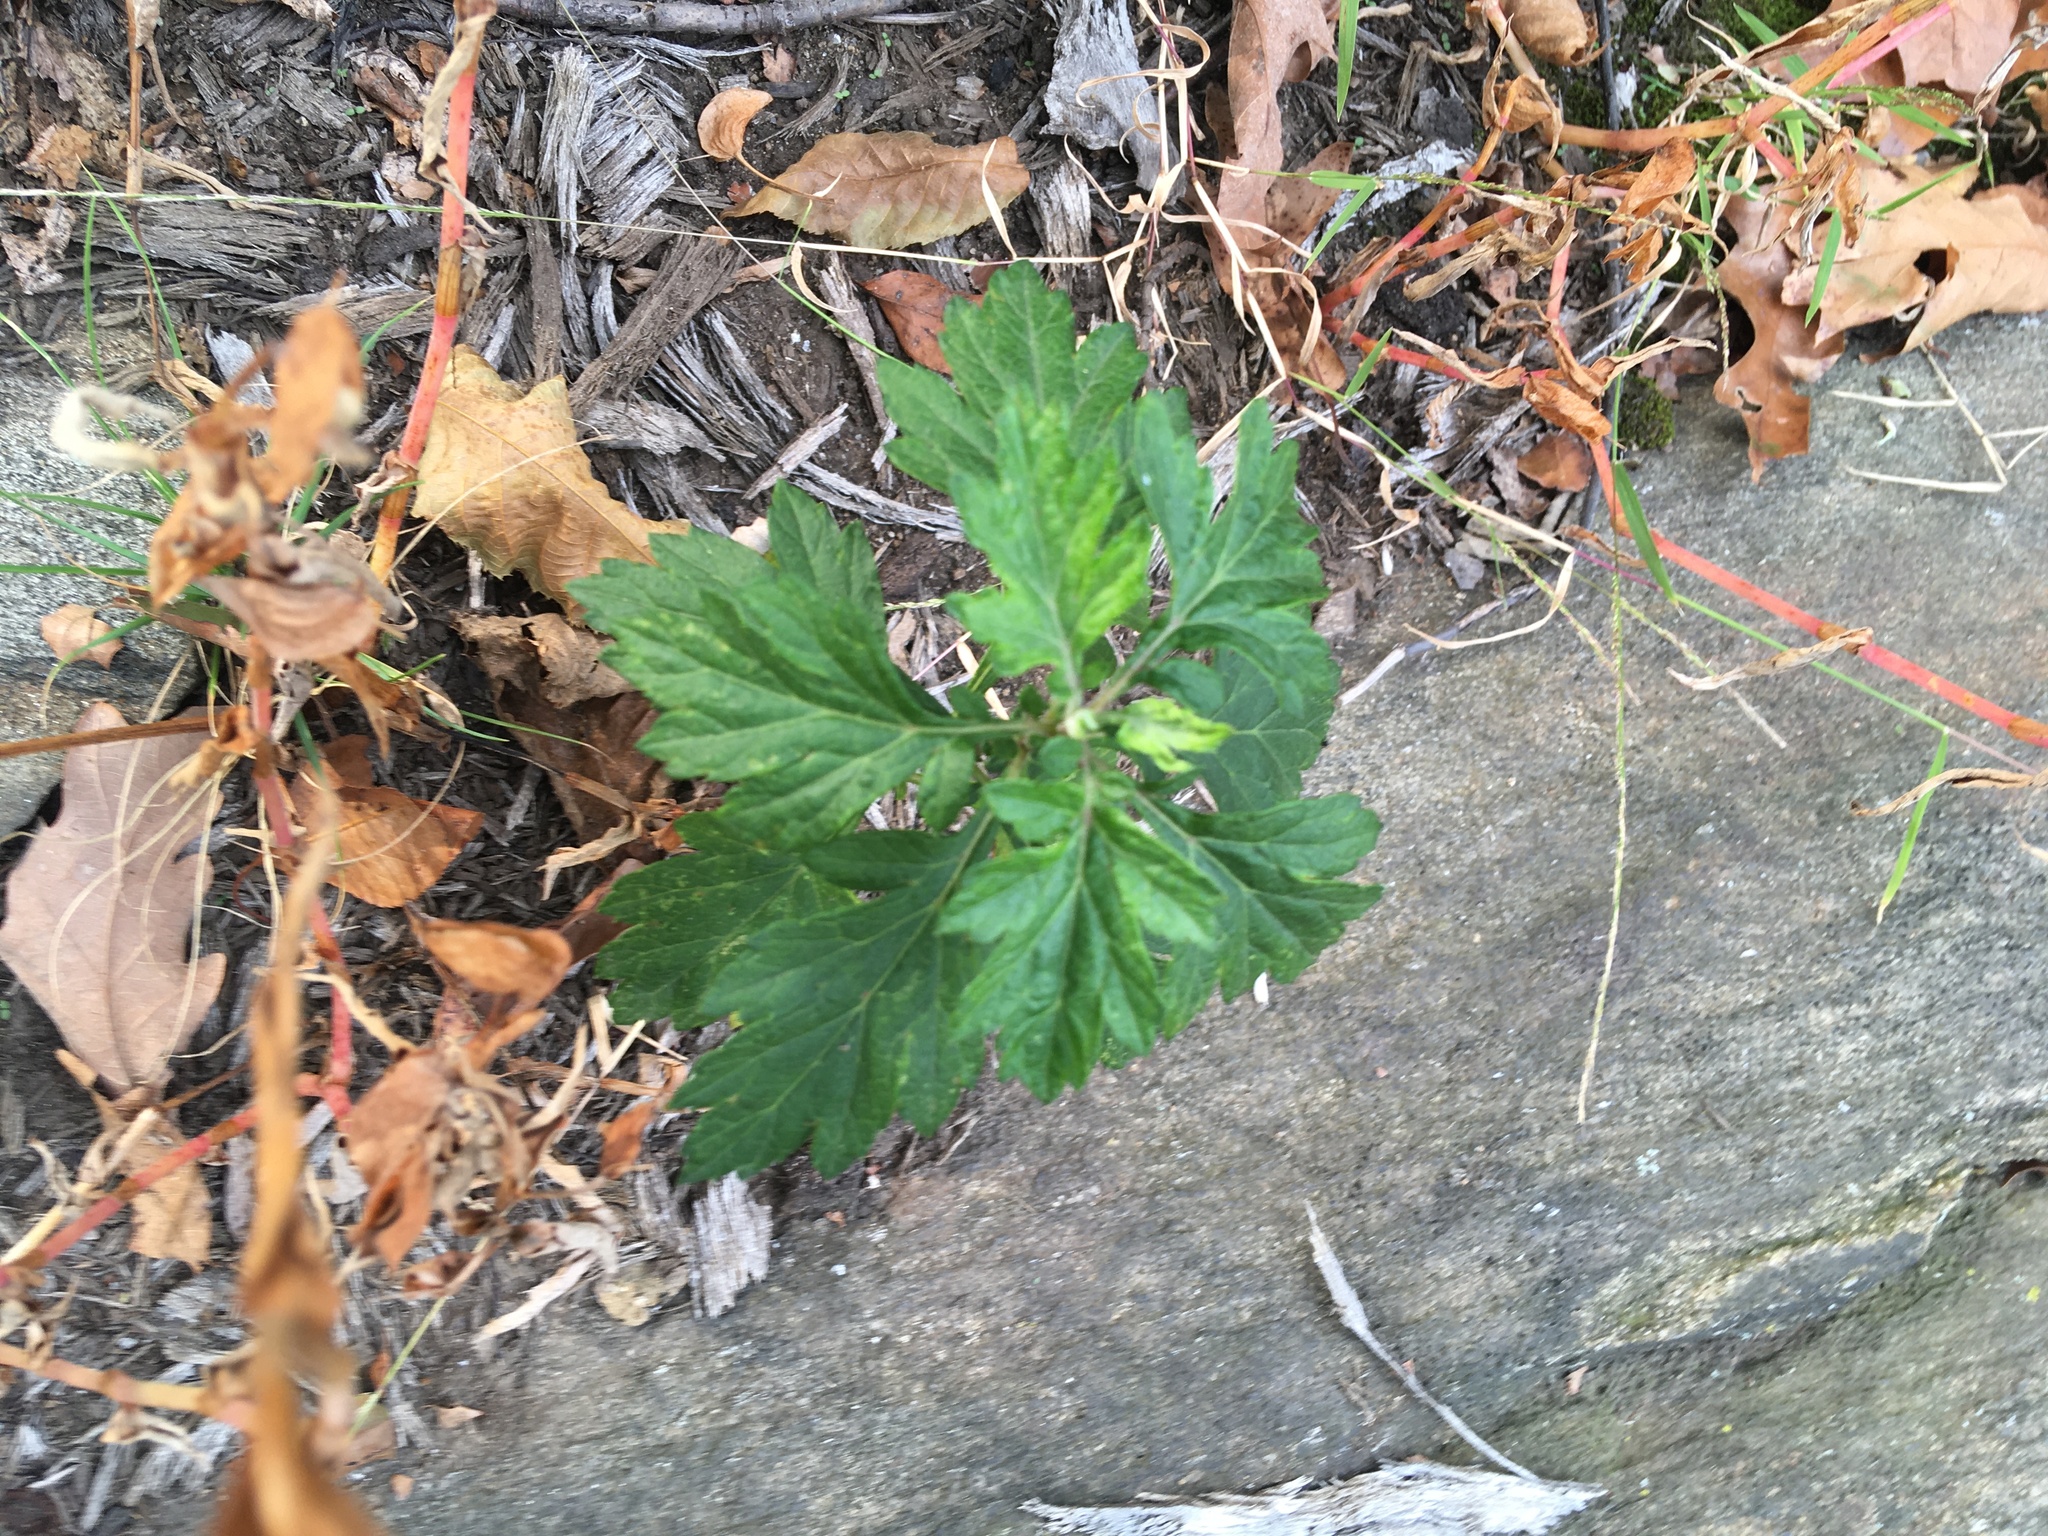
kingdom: Plantae
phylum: Tracheophyta
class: Magnoliopsida
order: Asterales
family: Asteraceae
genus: Artemisia
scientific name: Artemisia vulgaris
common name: Mugwort
